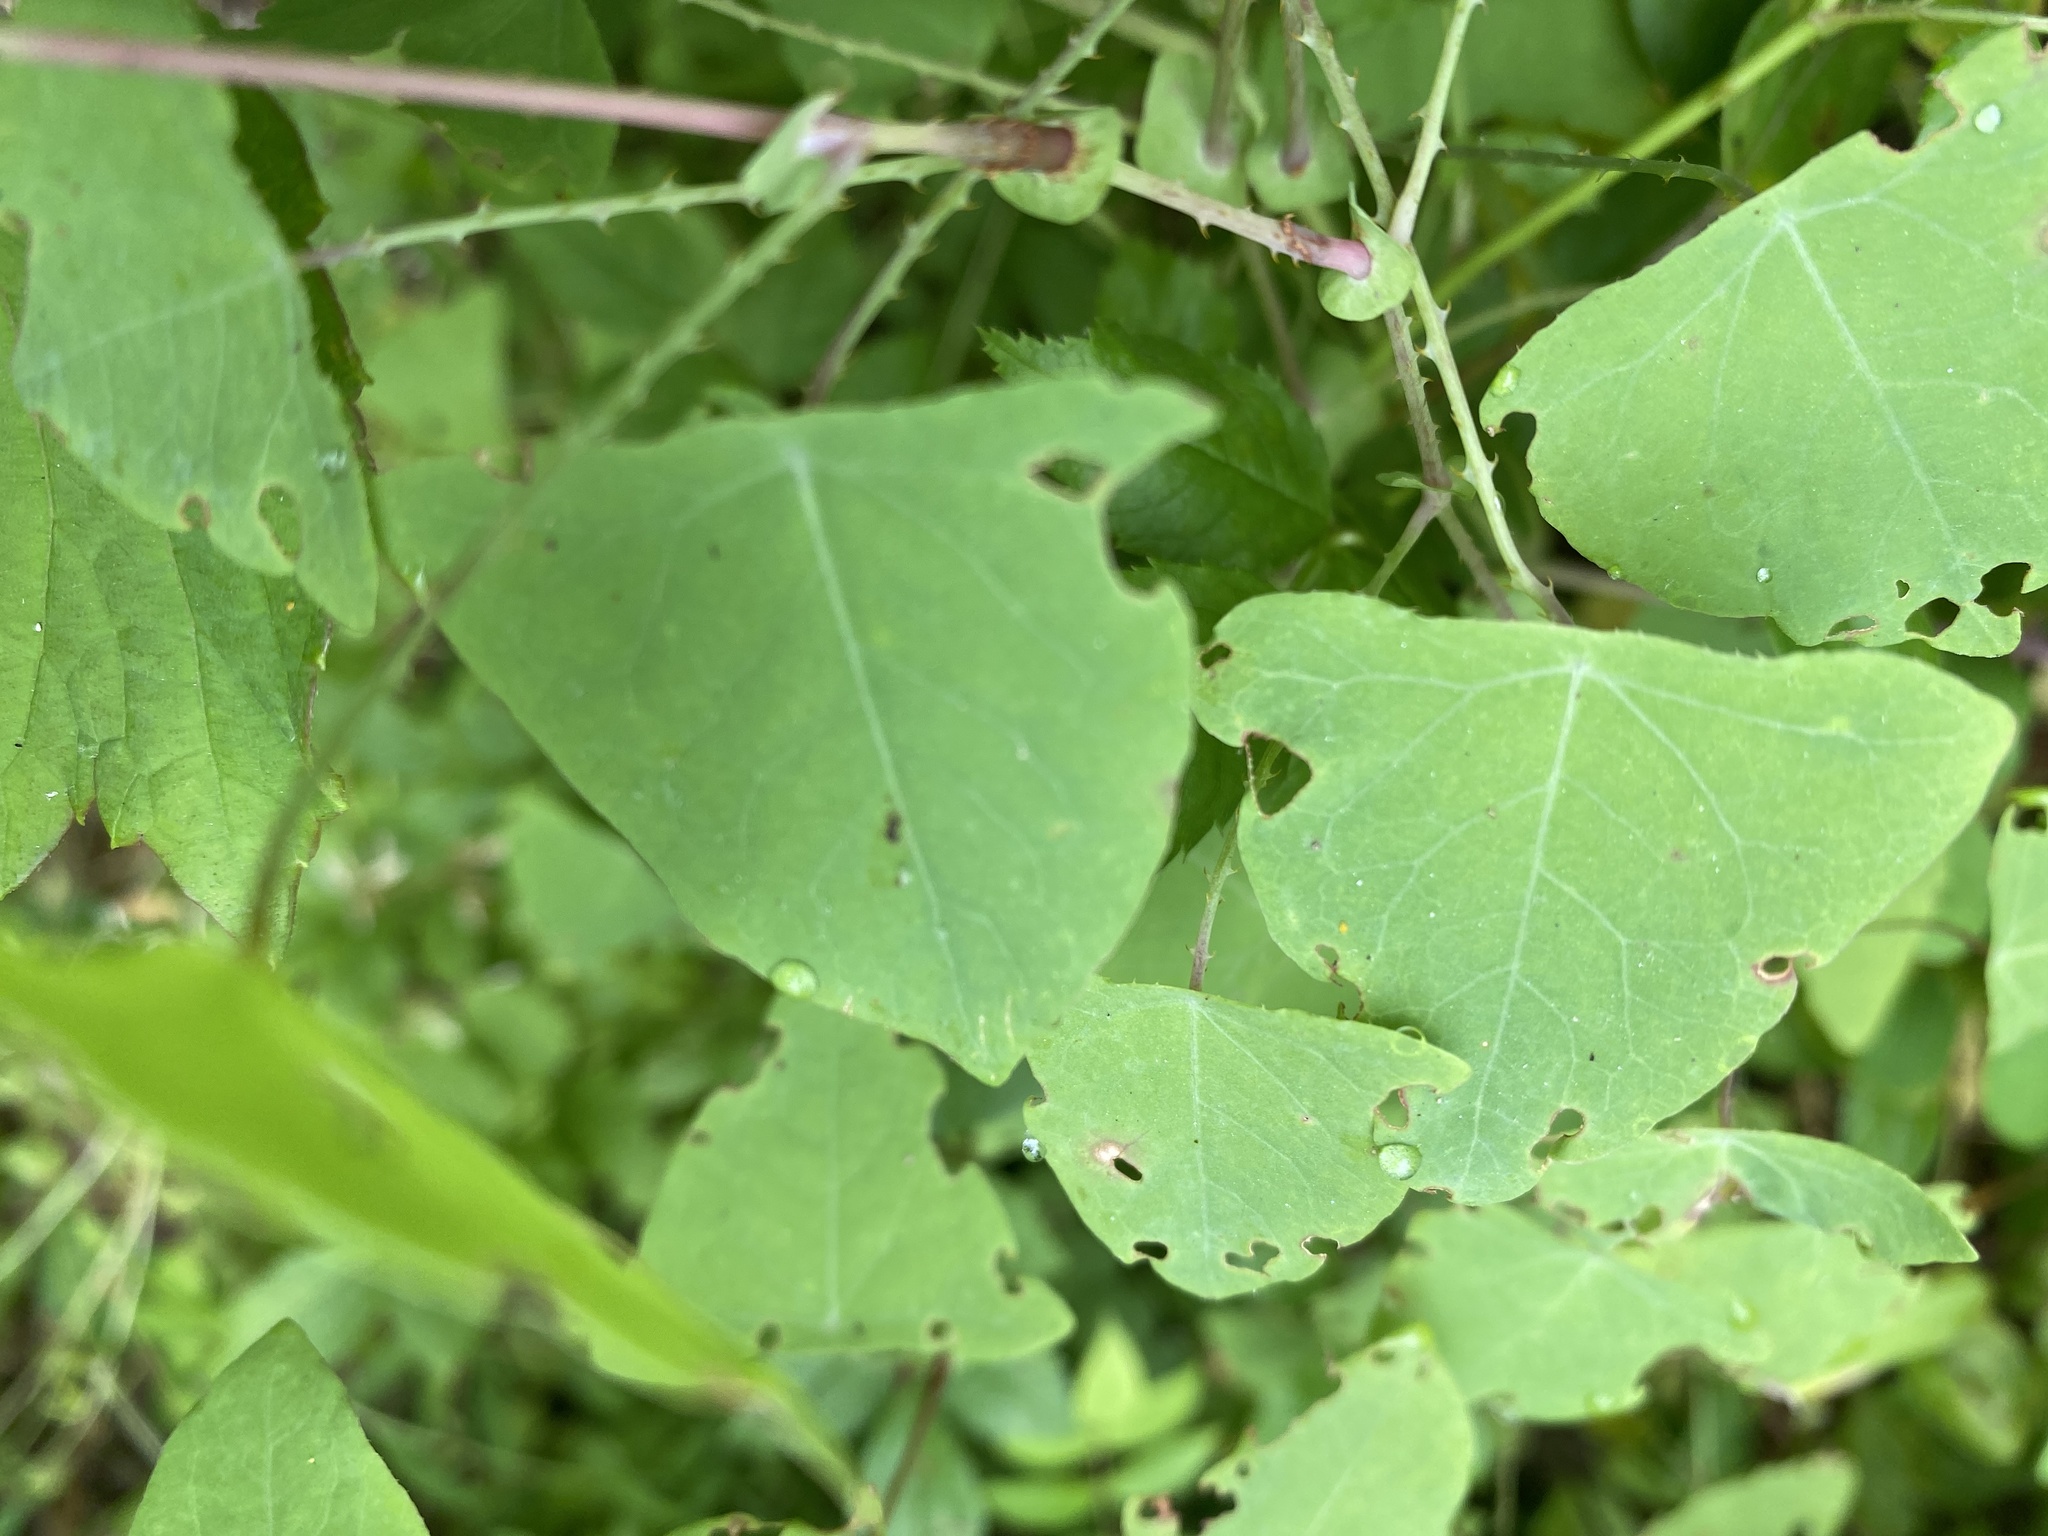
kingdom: Plantae
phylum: Tracheophyta
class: Magnoliopsida
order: Caryophyllales
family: Polygonaceae
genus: Persicaria
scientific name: Persicaria perfoliata
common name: Asiatic tearthumb
